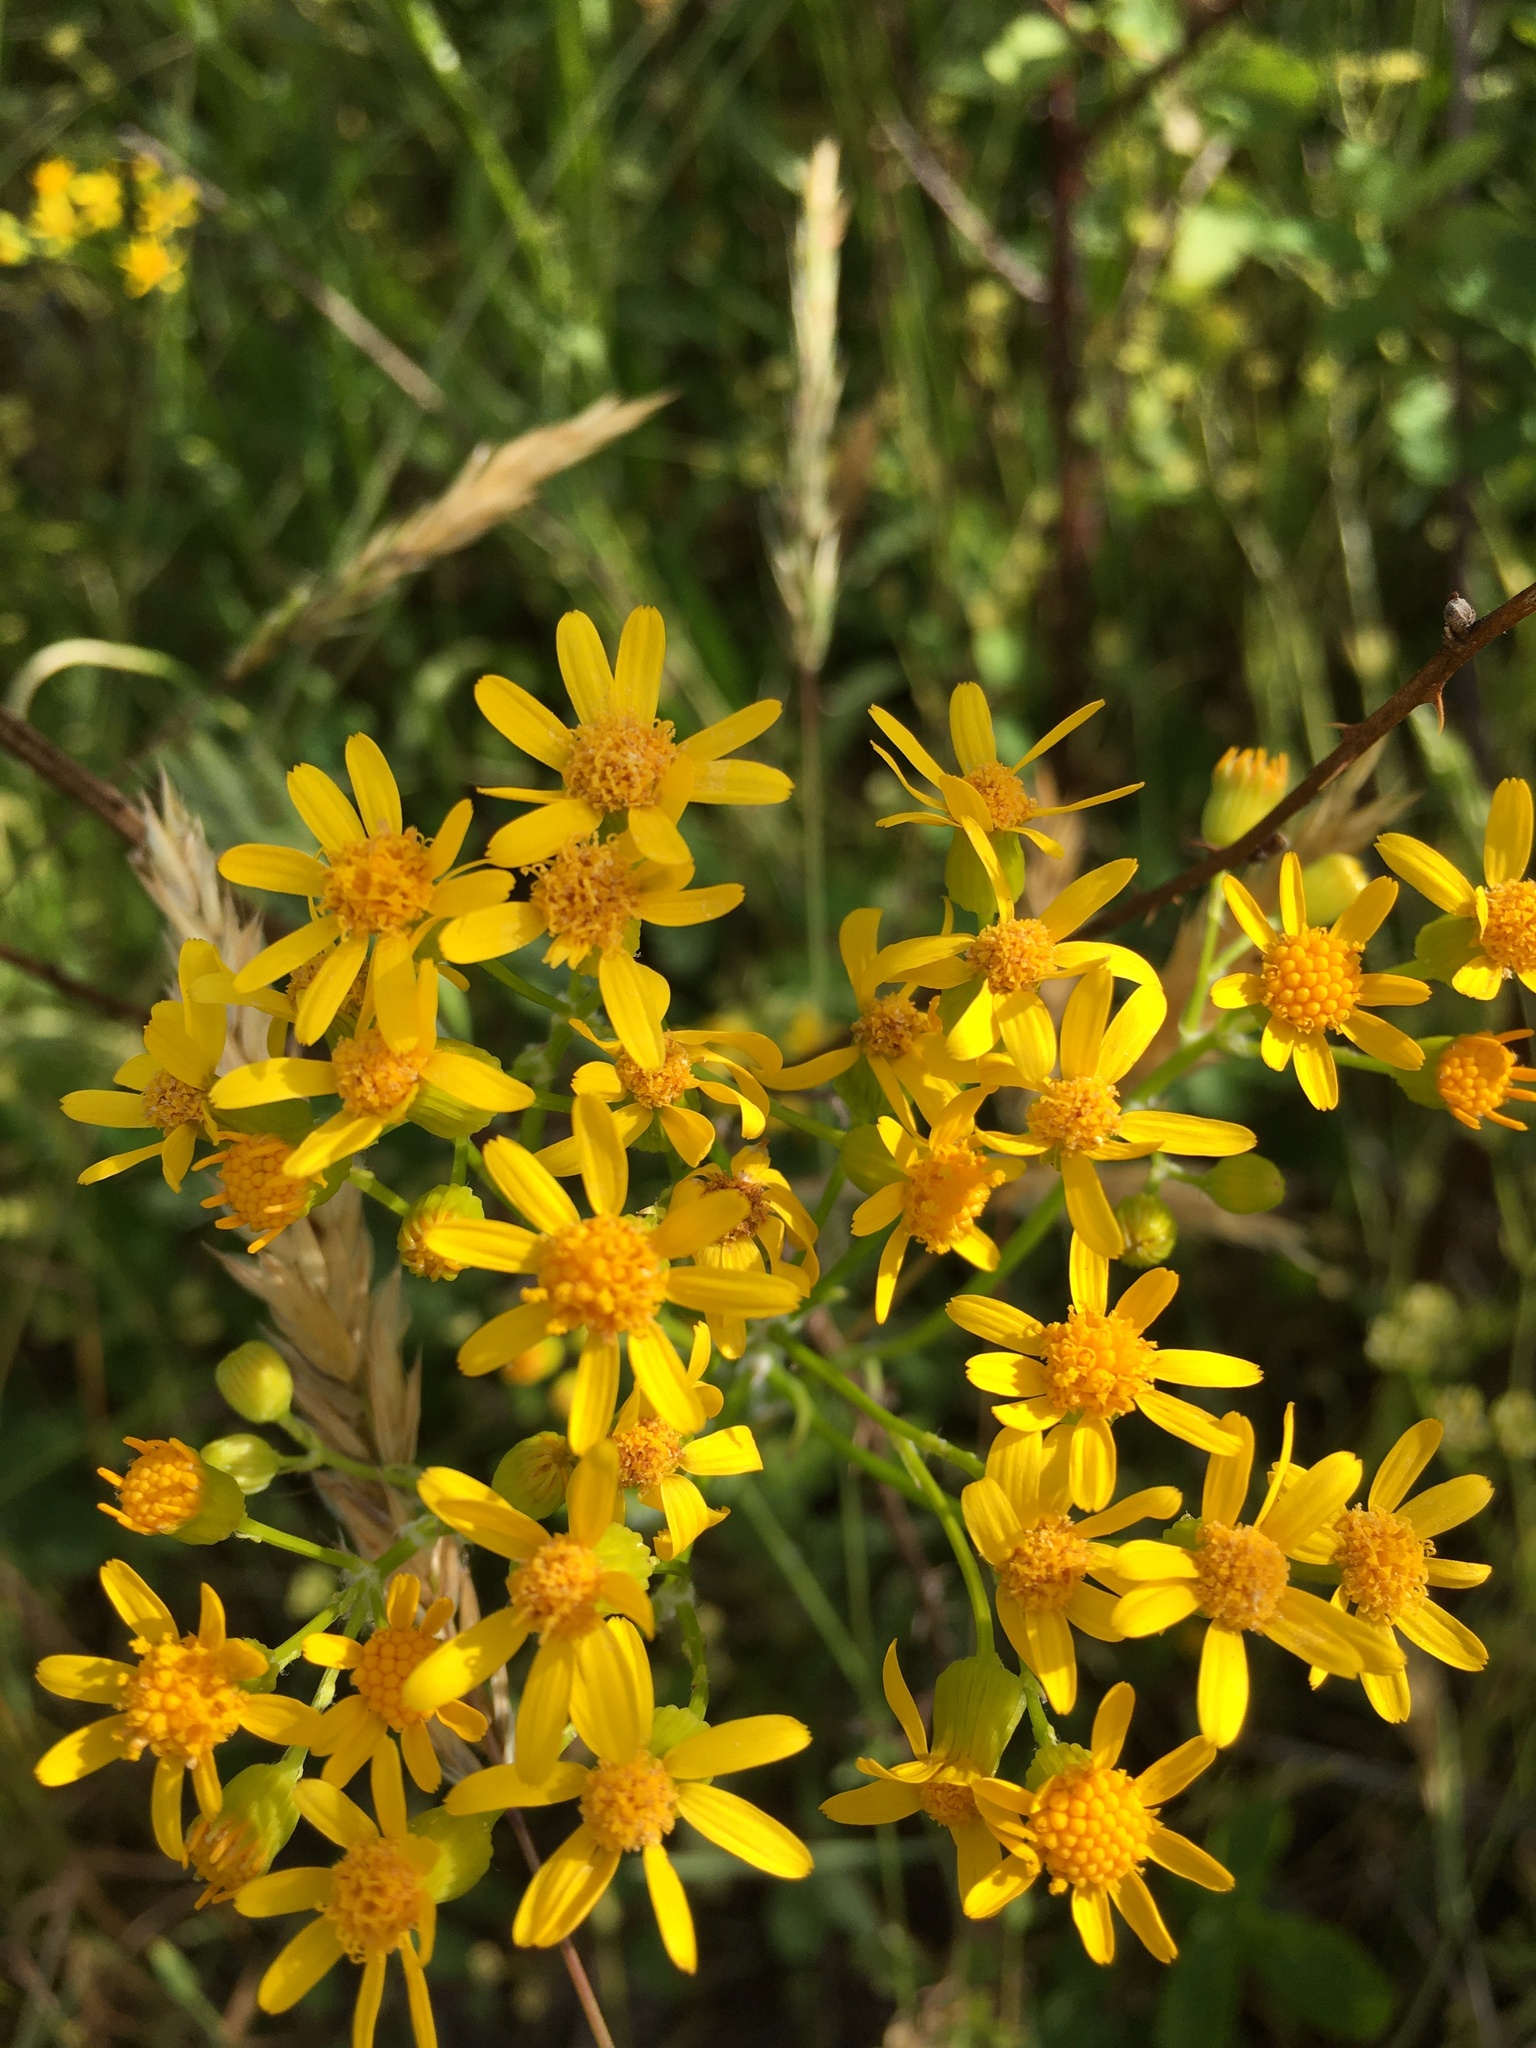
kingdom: Plantae
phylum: Tracheophyta
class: Magnoliopsida
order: Asterales
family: Asteraceae
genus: Packera
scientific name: Packera anonyma
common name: Small ragwort
